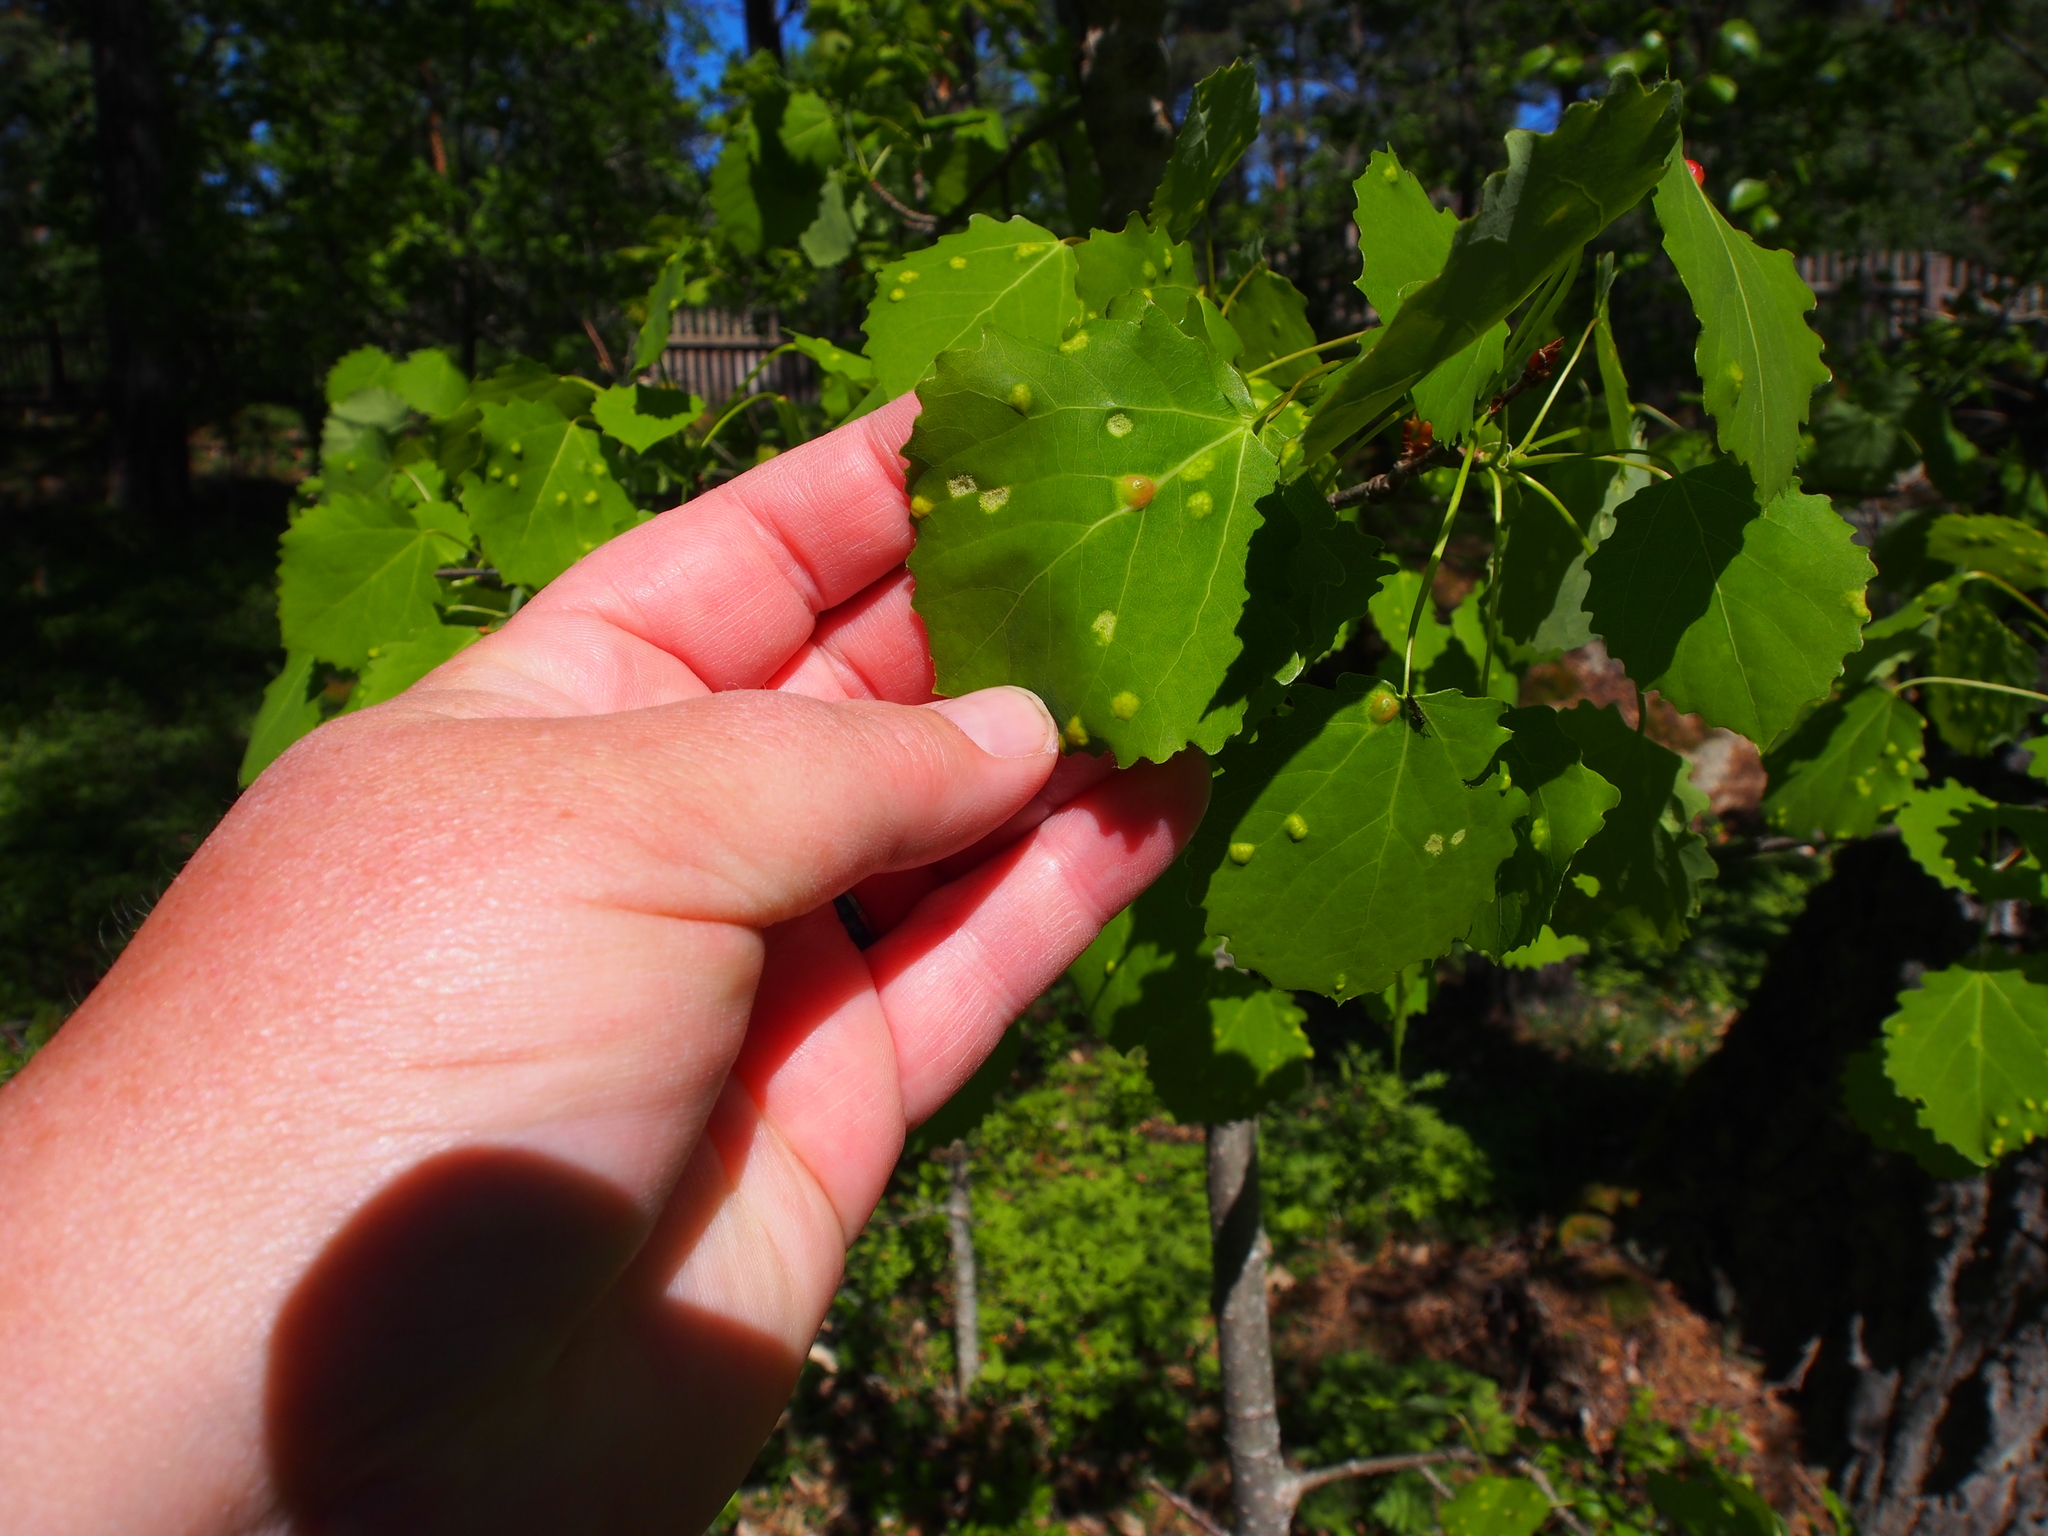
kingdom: Animalia
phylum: Arthropoda
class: Insecta
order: Diptera
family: Cecidomyiidae
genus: Harmandiola
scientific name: Harmandiola globuli
